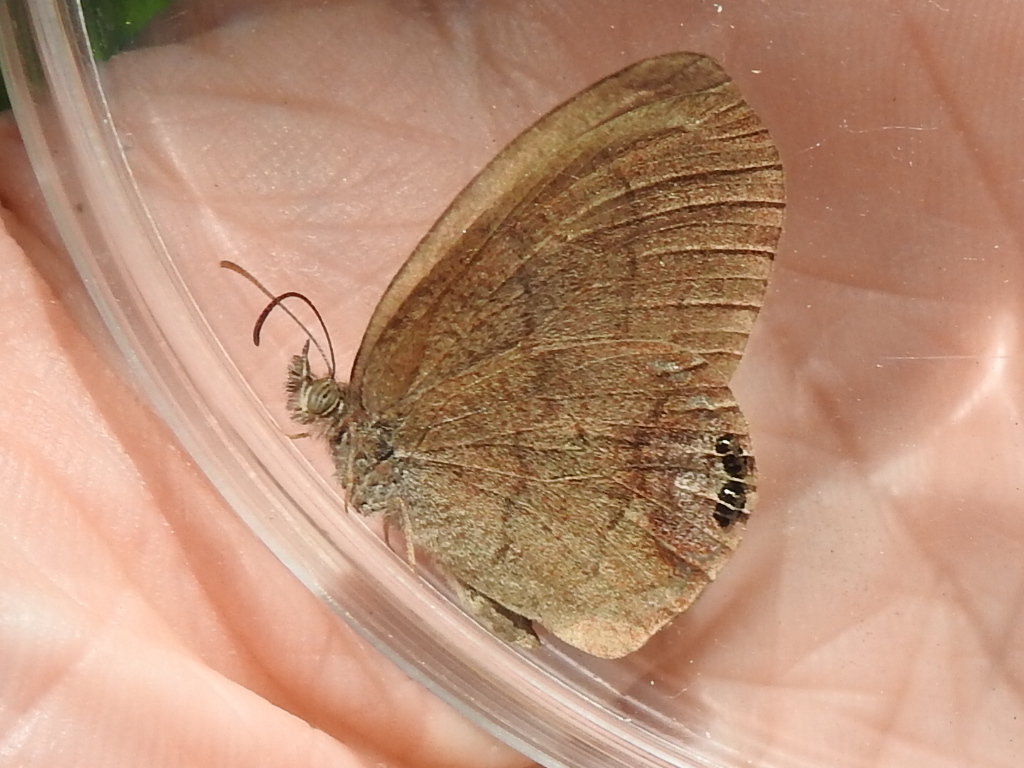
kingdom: Animalia
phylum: Arthropoda
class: Insecta
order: Lepidoptera
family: Nymphalidae
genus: Euptychia
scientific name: Euptychia cornelius
